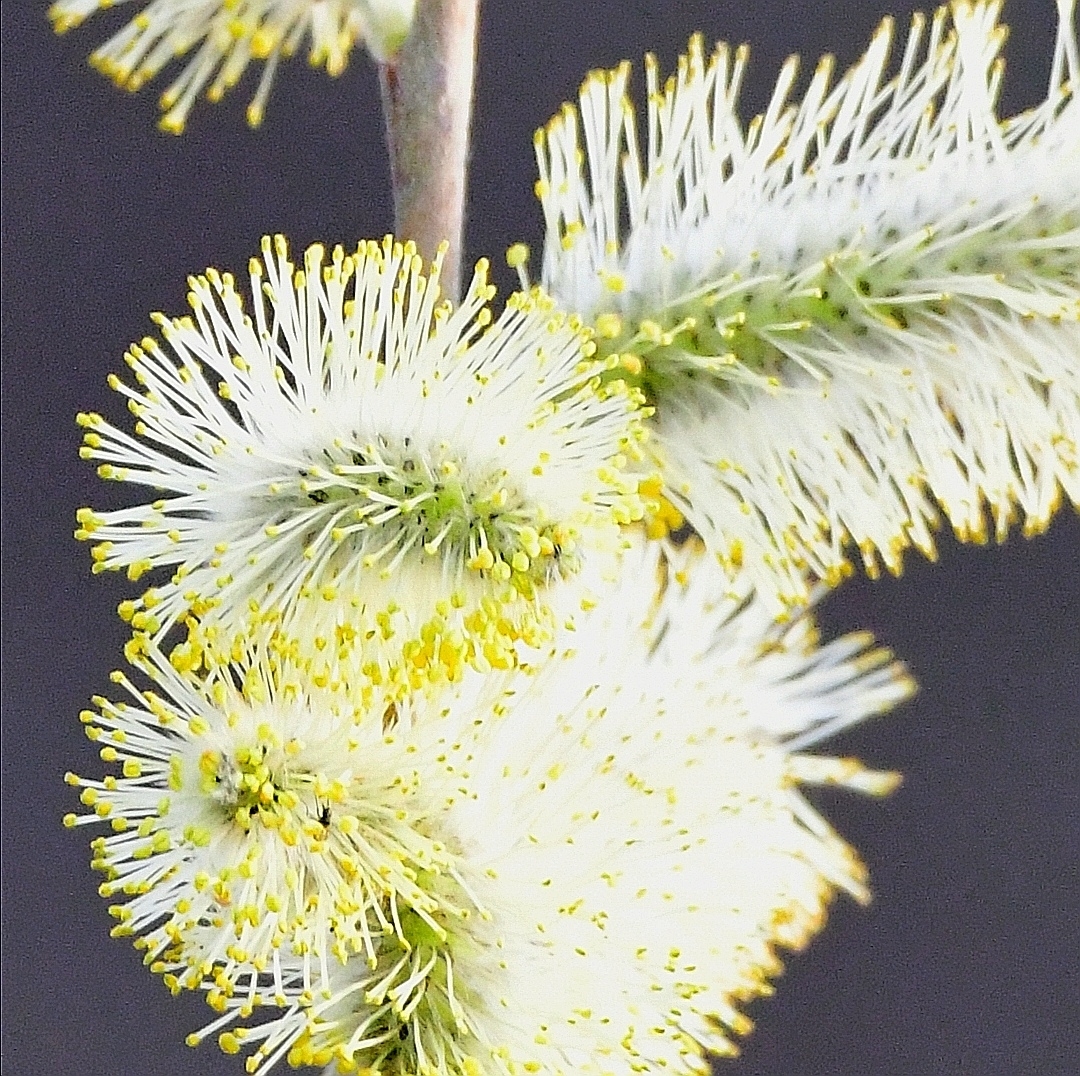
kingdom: Plantae
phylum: Tracheophyta
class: Magnoliopsida
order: Malpighiales
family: Salicaceae
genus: Salix
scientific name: Salix discolor
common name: Glaucous willow
